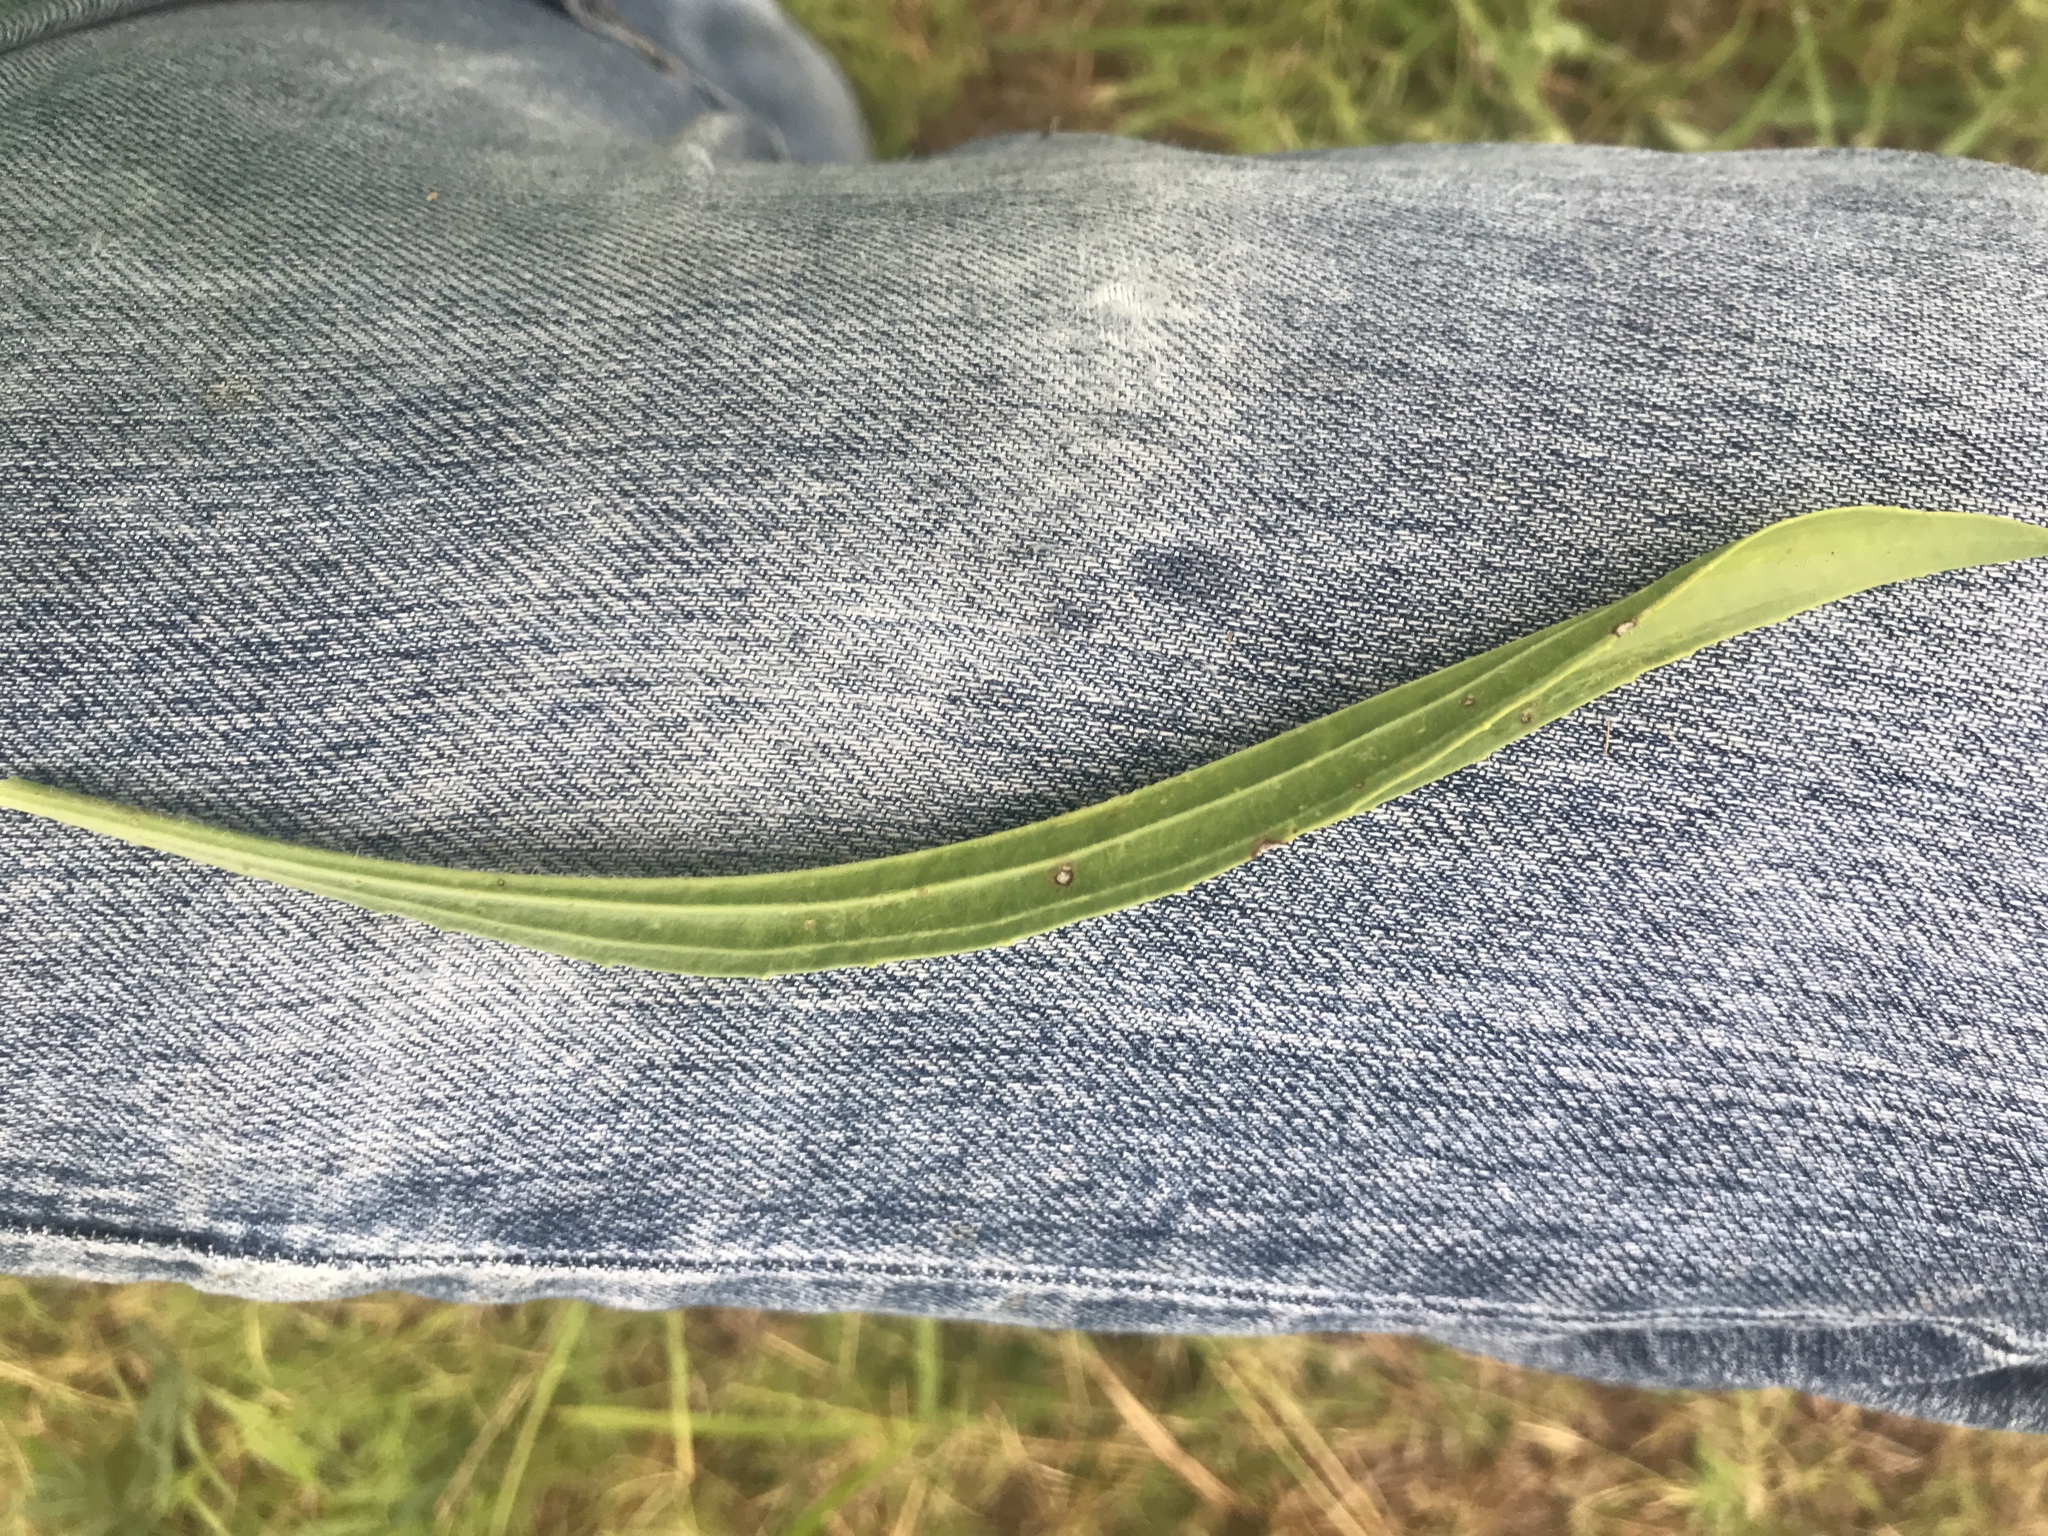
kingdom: Plantae
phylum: Tracheophyta
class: Magnoliopsida
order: Lamiales
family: Plantaginaceae
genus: Plantago
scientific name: Plantago lanceolata
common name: Ribwort plantain
